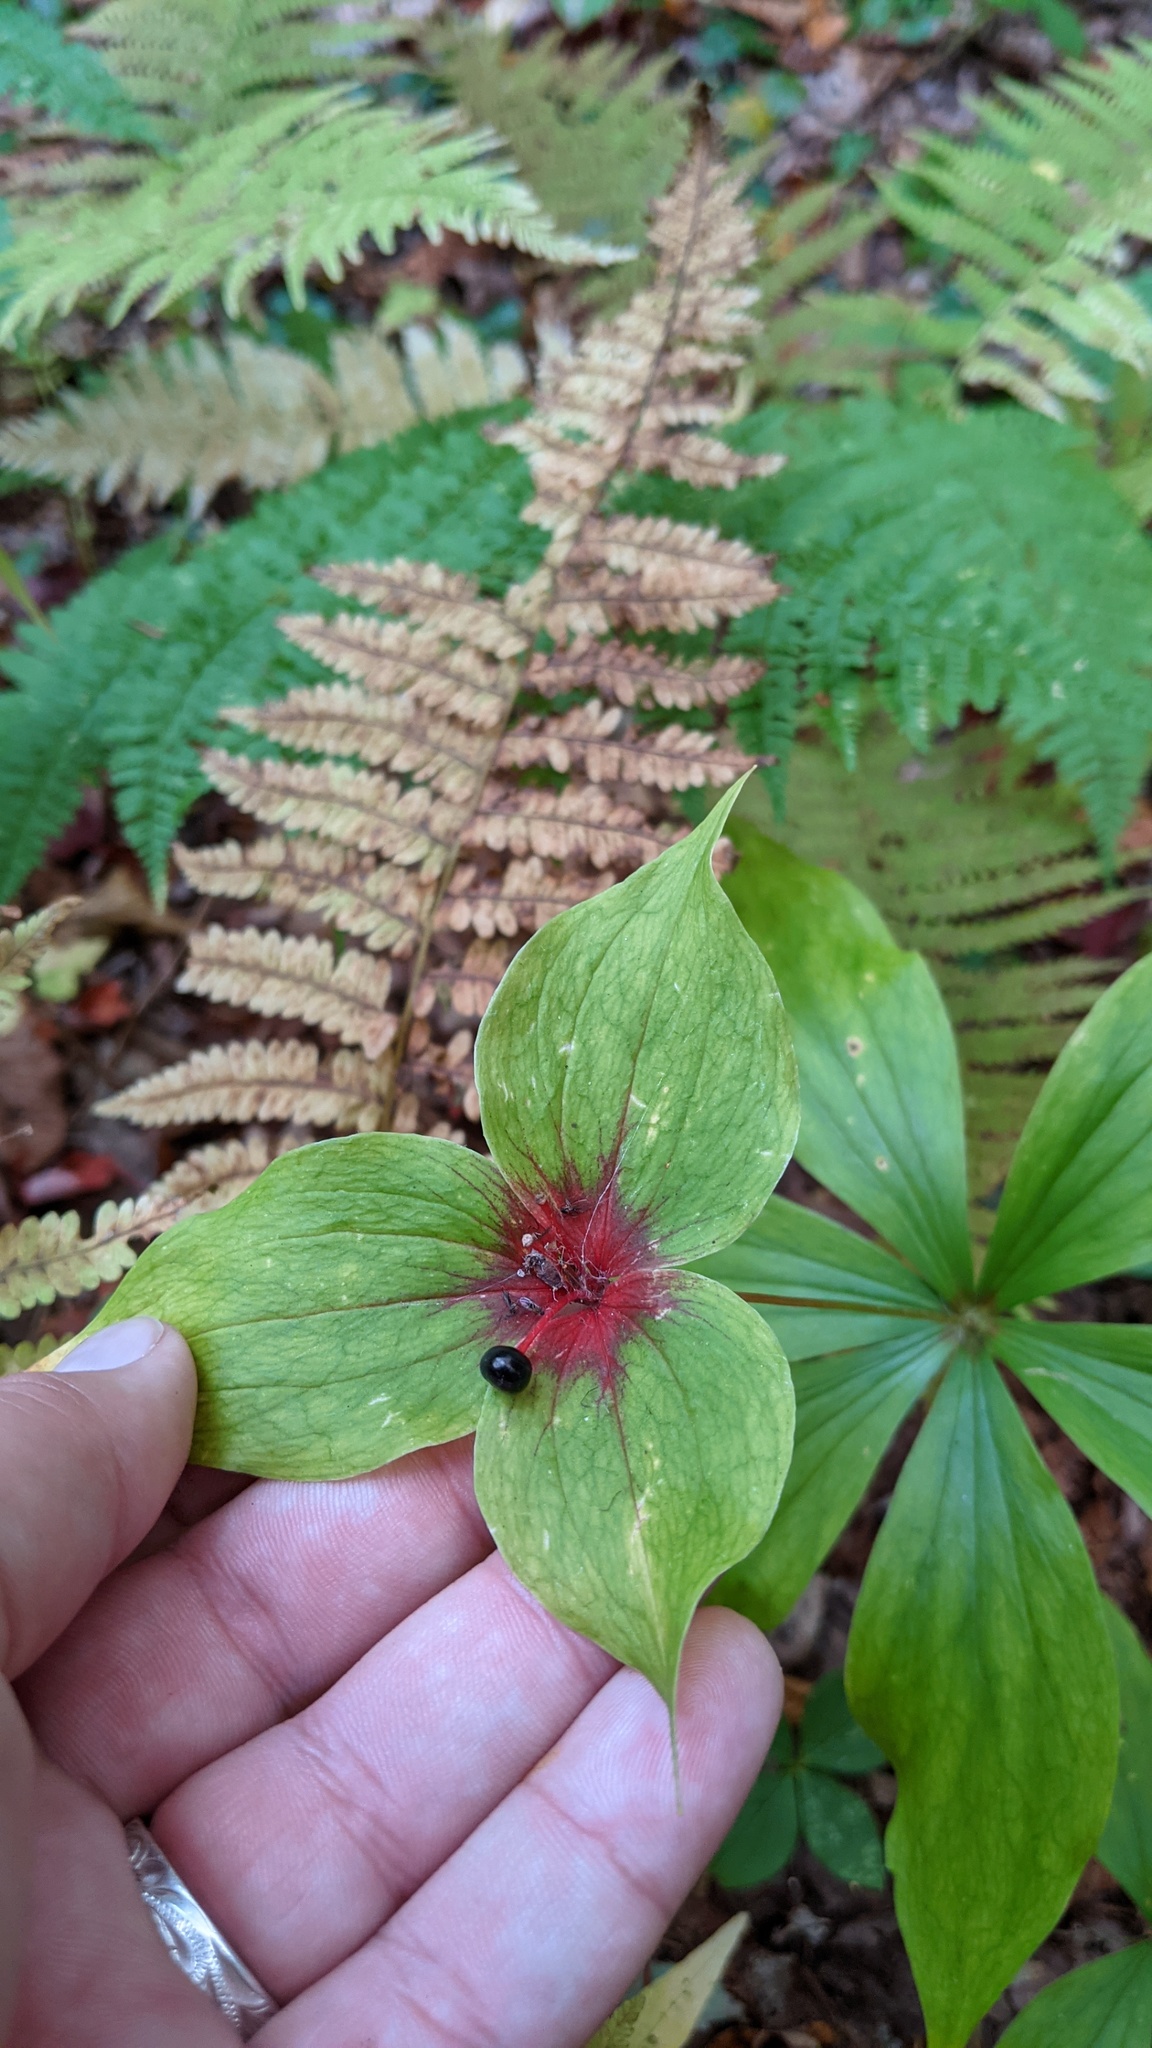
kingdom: Plantae
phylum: Tracheophyta
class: Liliopsida
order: Liliales
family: Liliaceae
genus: Medeola
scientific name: Medeola virginiana
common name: Indian cucumber-root
